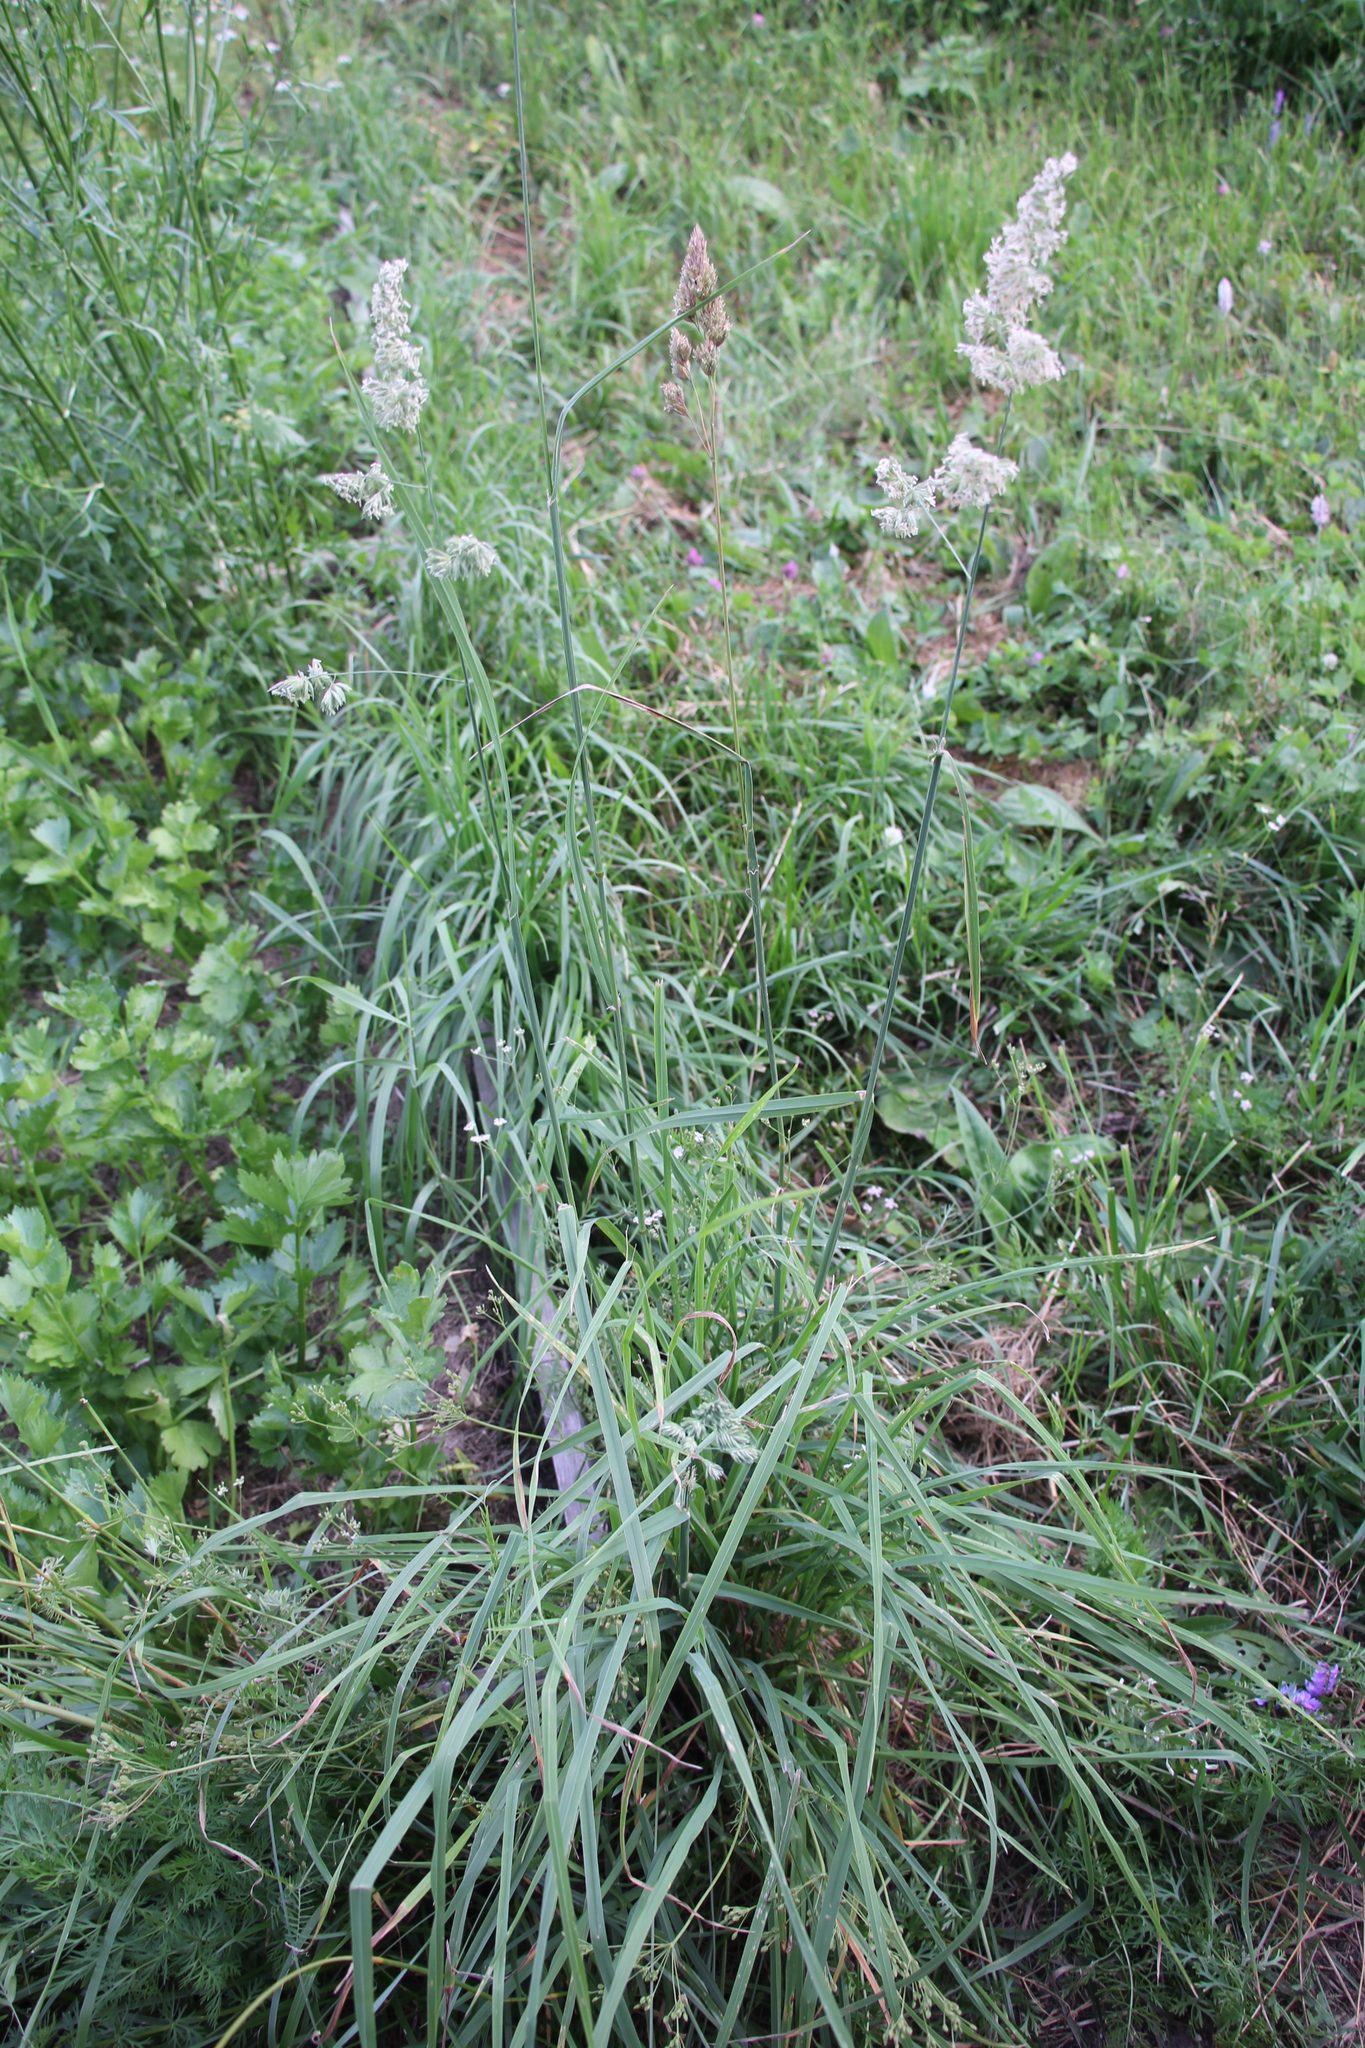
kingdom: Plantae
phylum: Tracheophyta
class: Liliopsida
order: Poales
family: Poaceae
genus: Dactylis
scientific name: Dactylis glomerata
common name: Orchardgrass
